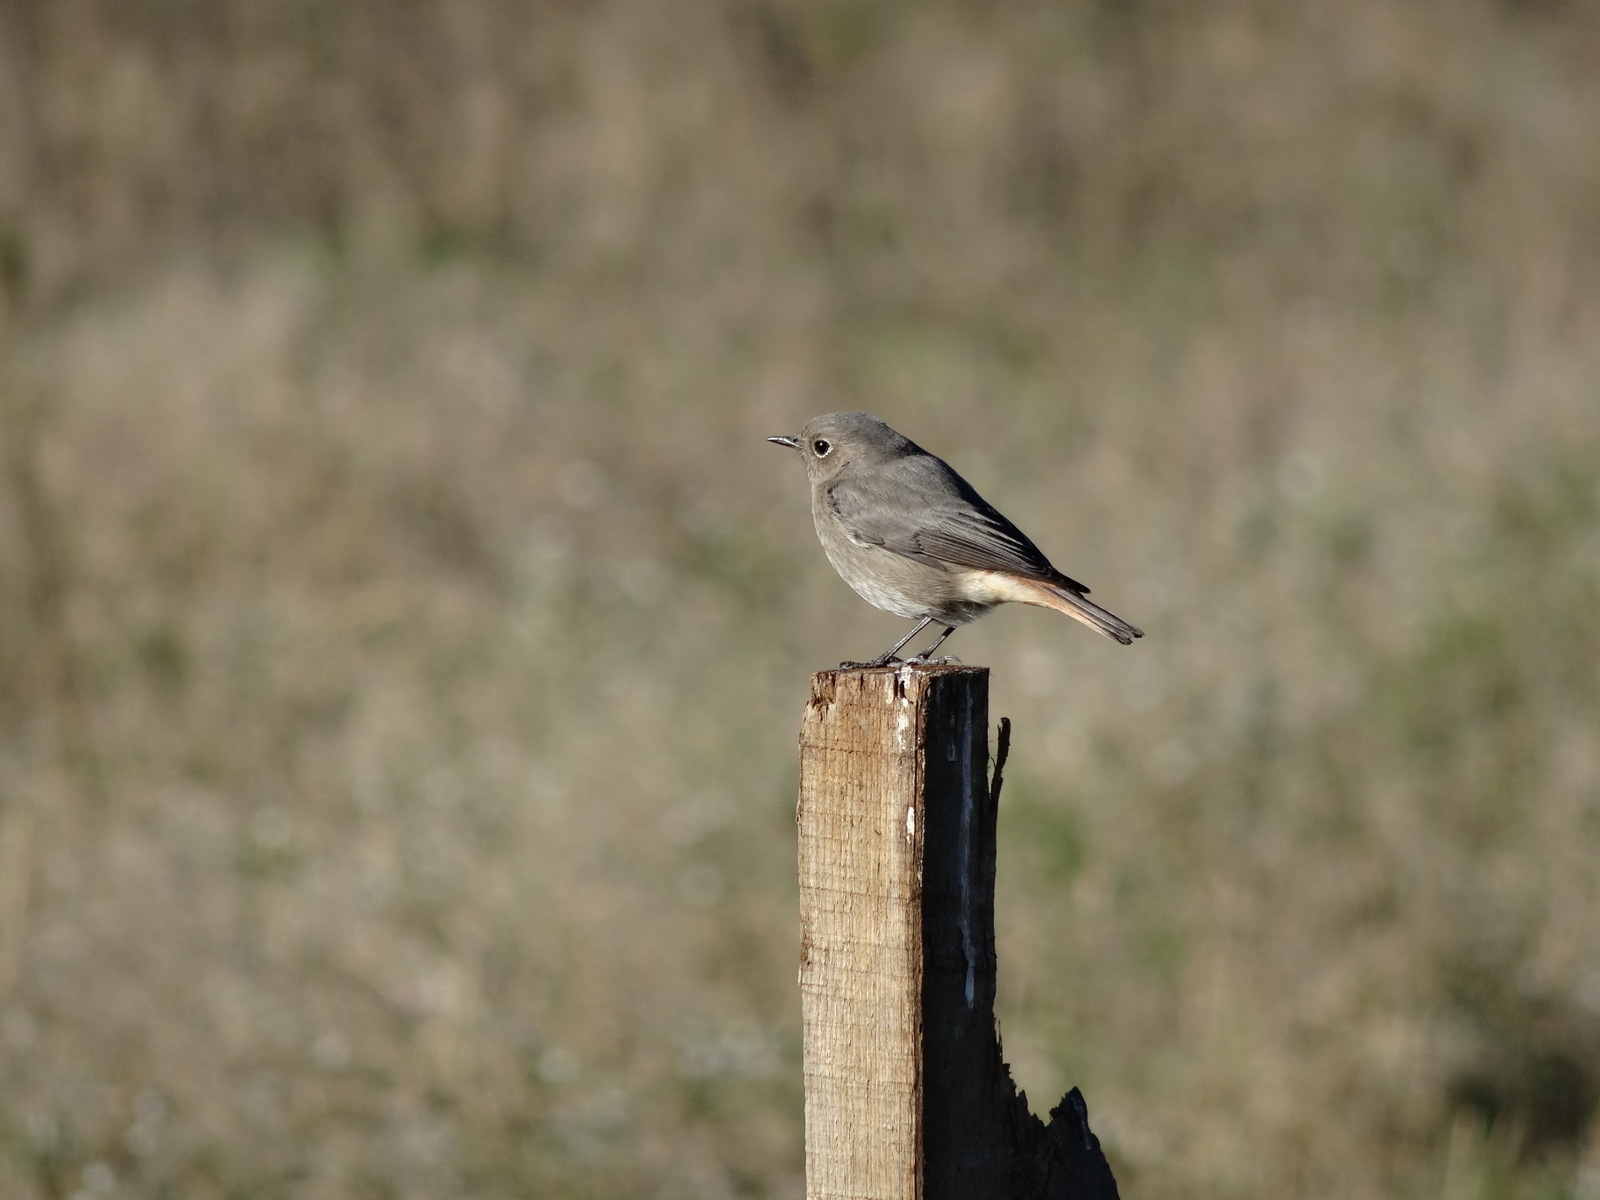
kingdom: Animalia
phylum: Chordata
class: Aves
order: Passeriformes
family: Muscicapidae
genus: Phoenicurus
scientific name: Phoenicurus ochruros
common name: Black redstart
